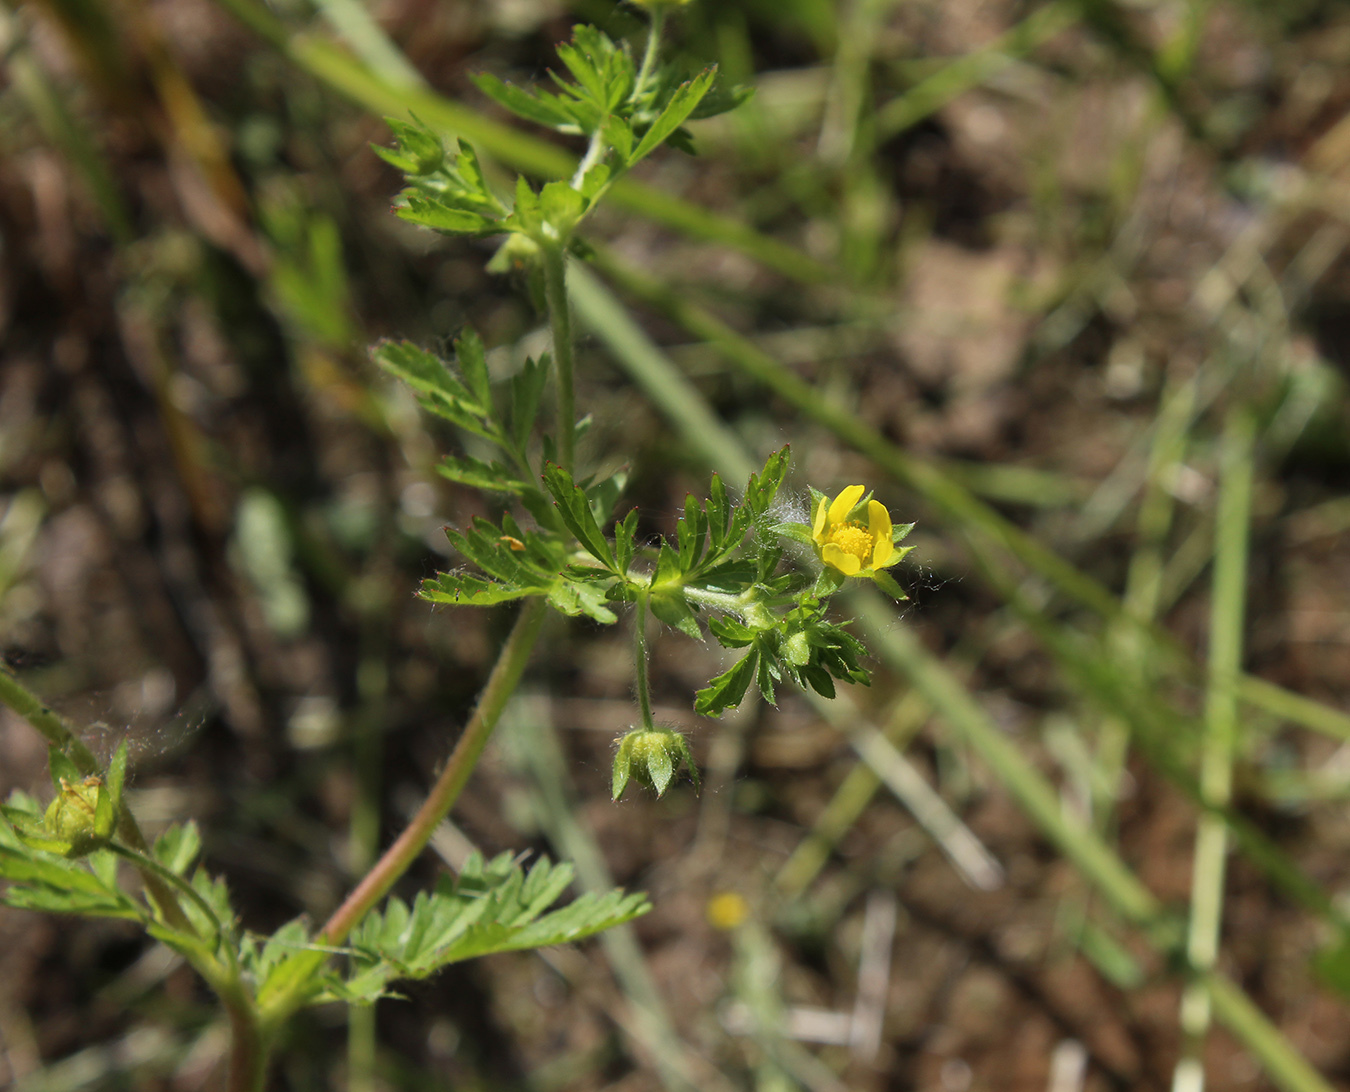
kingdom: Plantae
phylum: Tracheophyta
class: Magnoliopsida
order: Rosales
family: Rosaceae
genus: Potentilla
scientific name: Potentilla supina
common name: Prostrate cinquefoil
